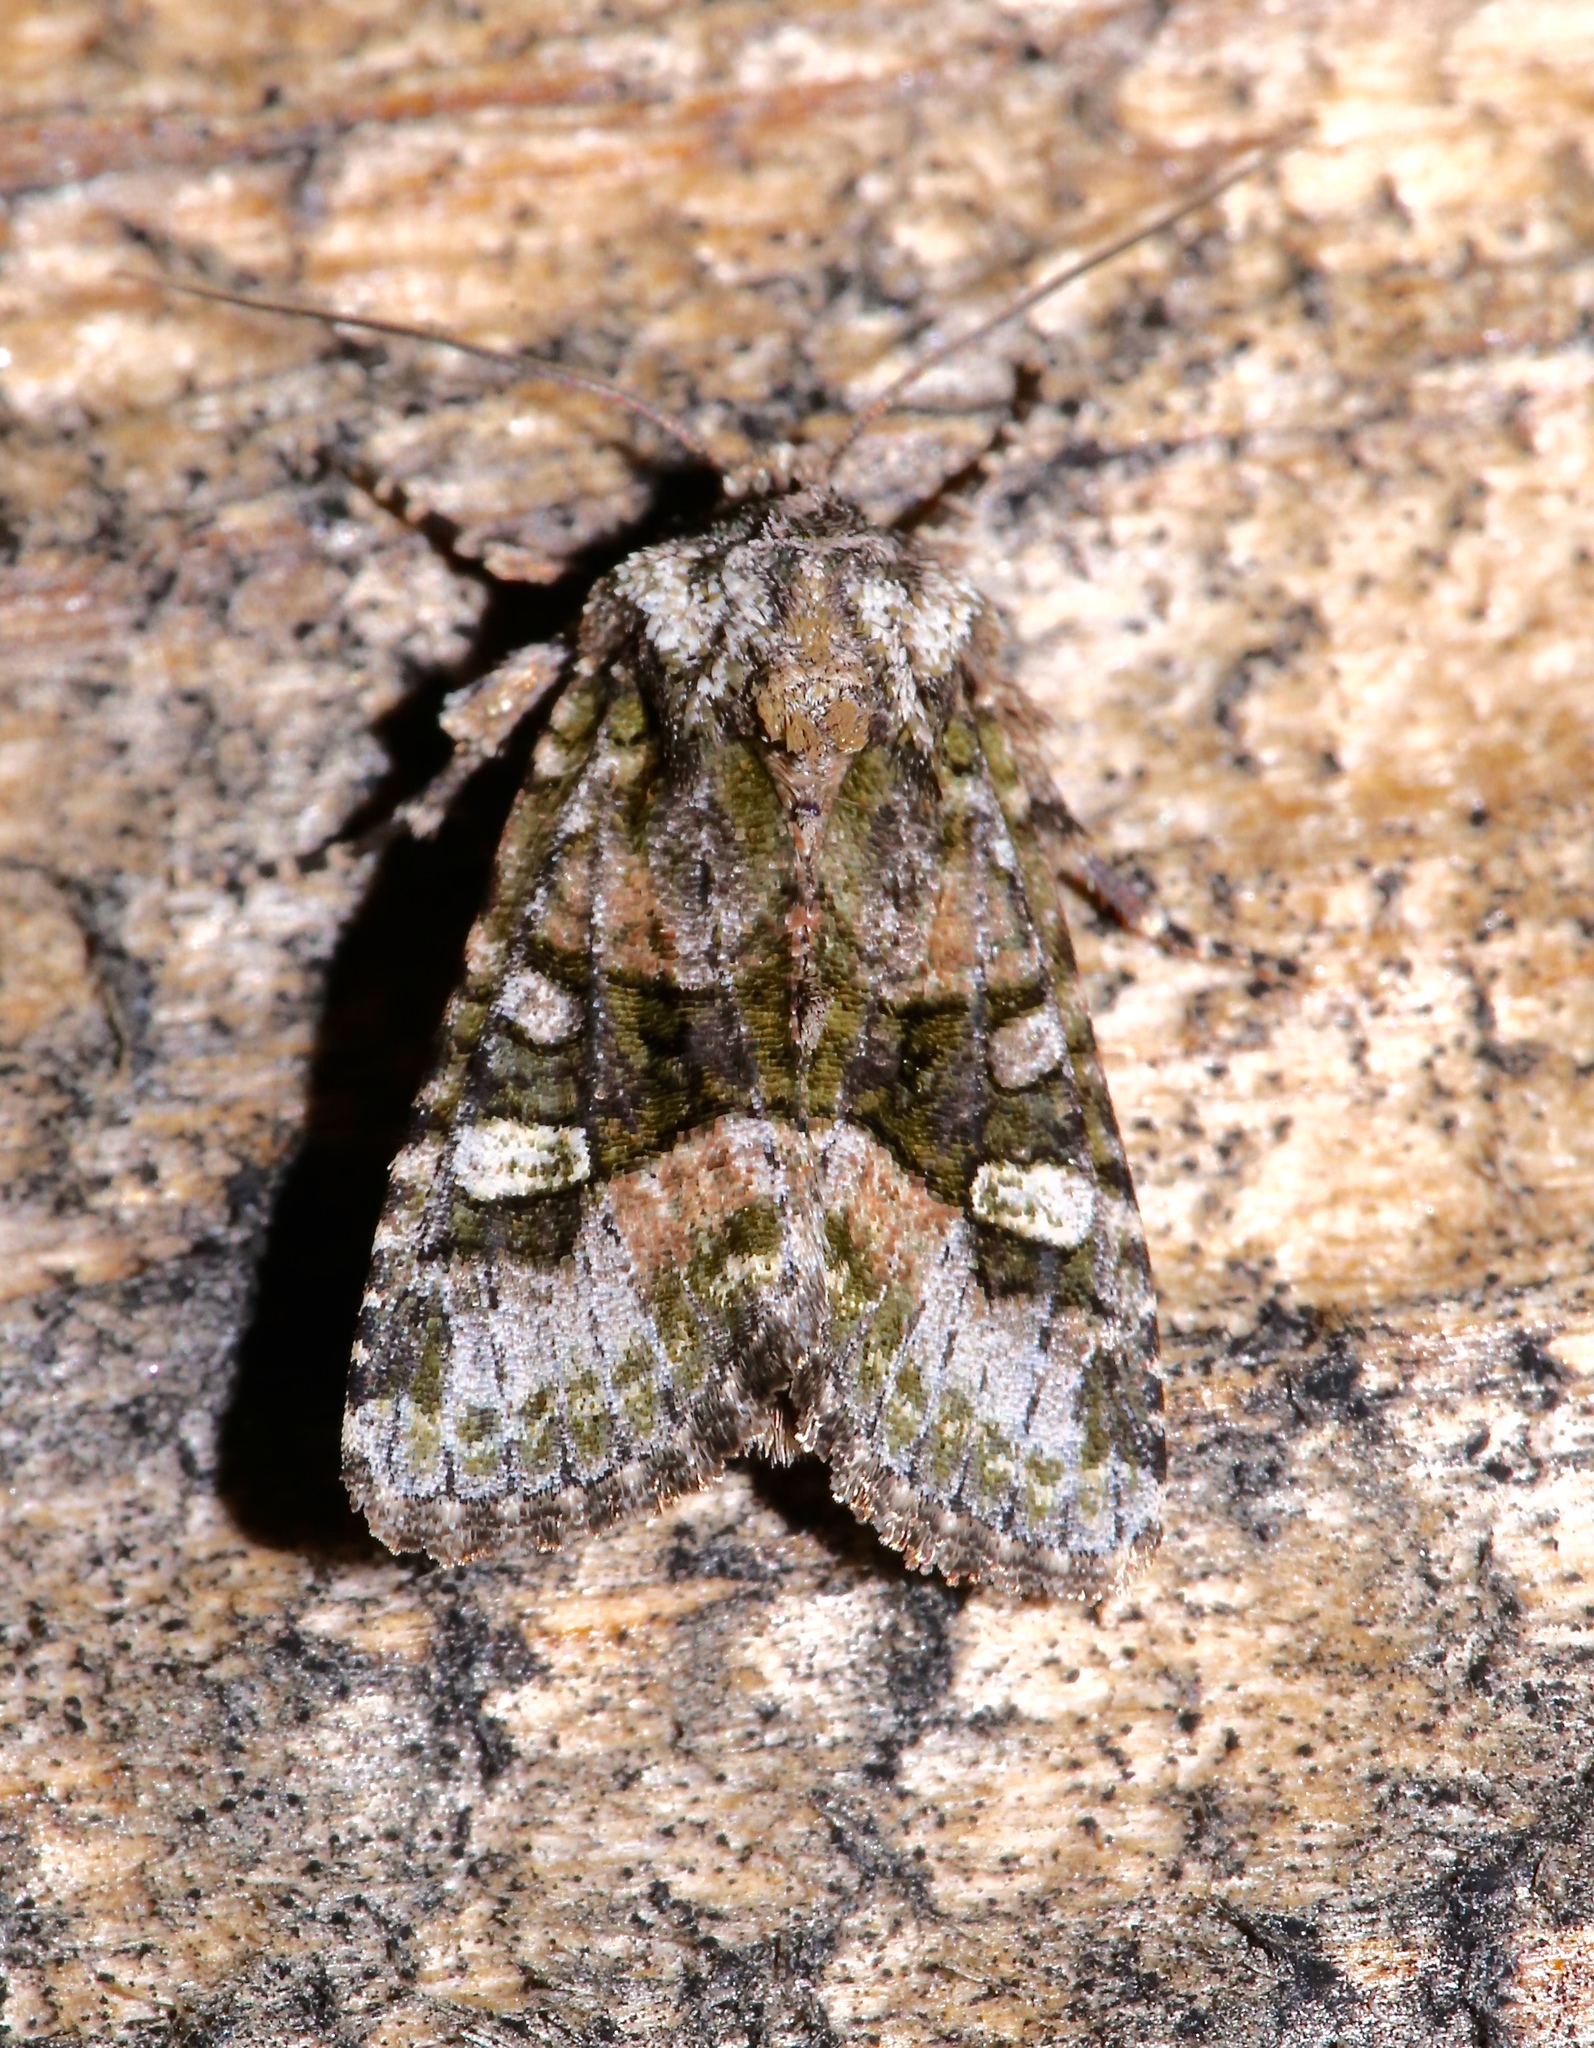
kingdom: Animalia
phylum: Arthropoda
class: Insecta
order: Lepidoptera
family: Noctuidae
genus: Lacinipolia
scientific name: Lacinipolia olivacea
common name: Olive arches moth
